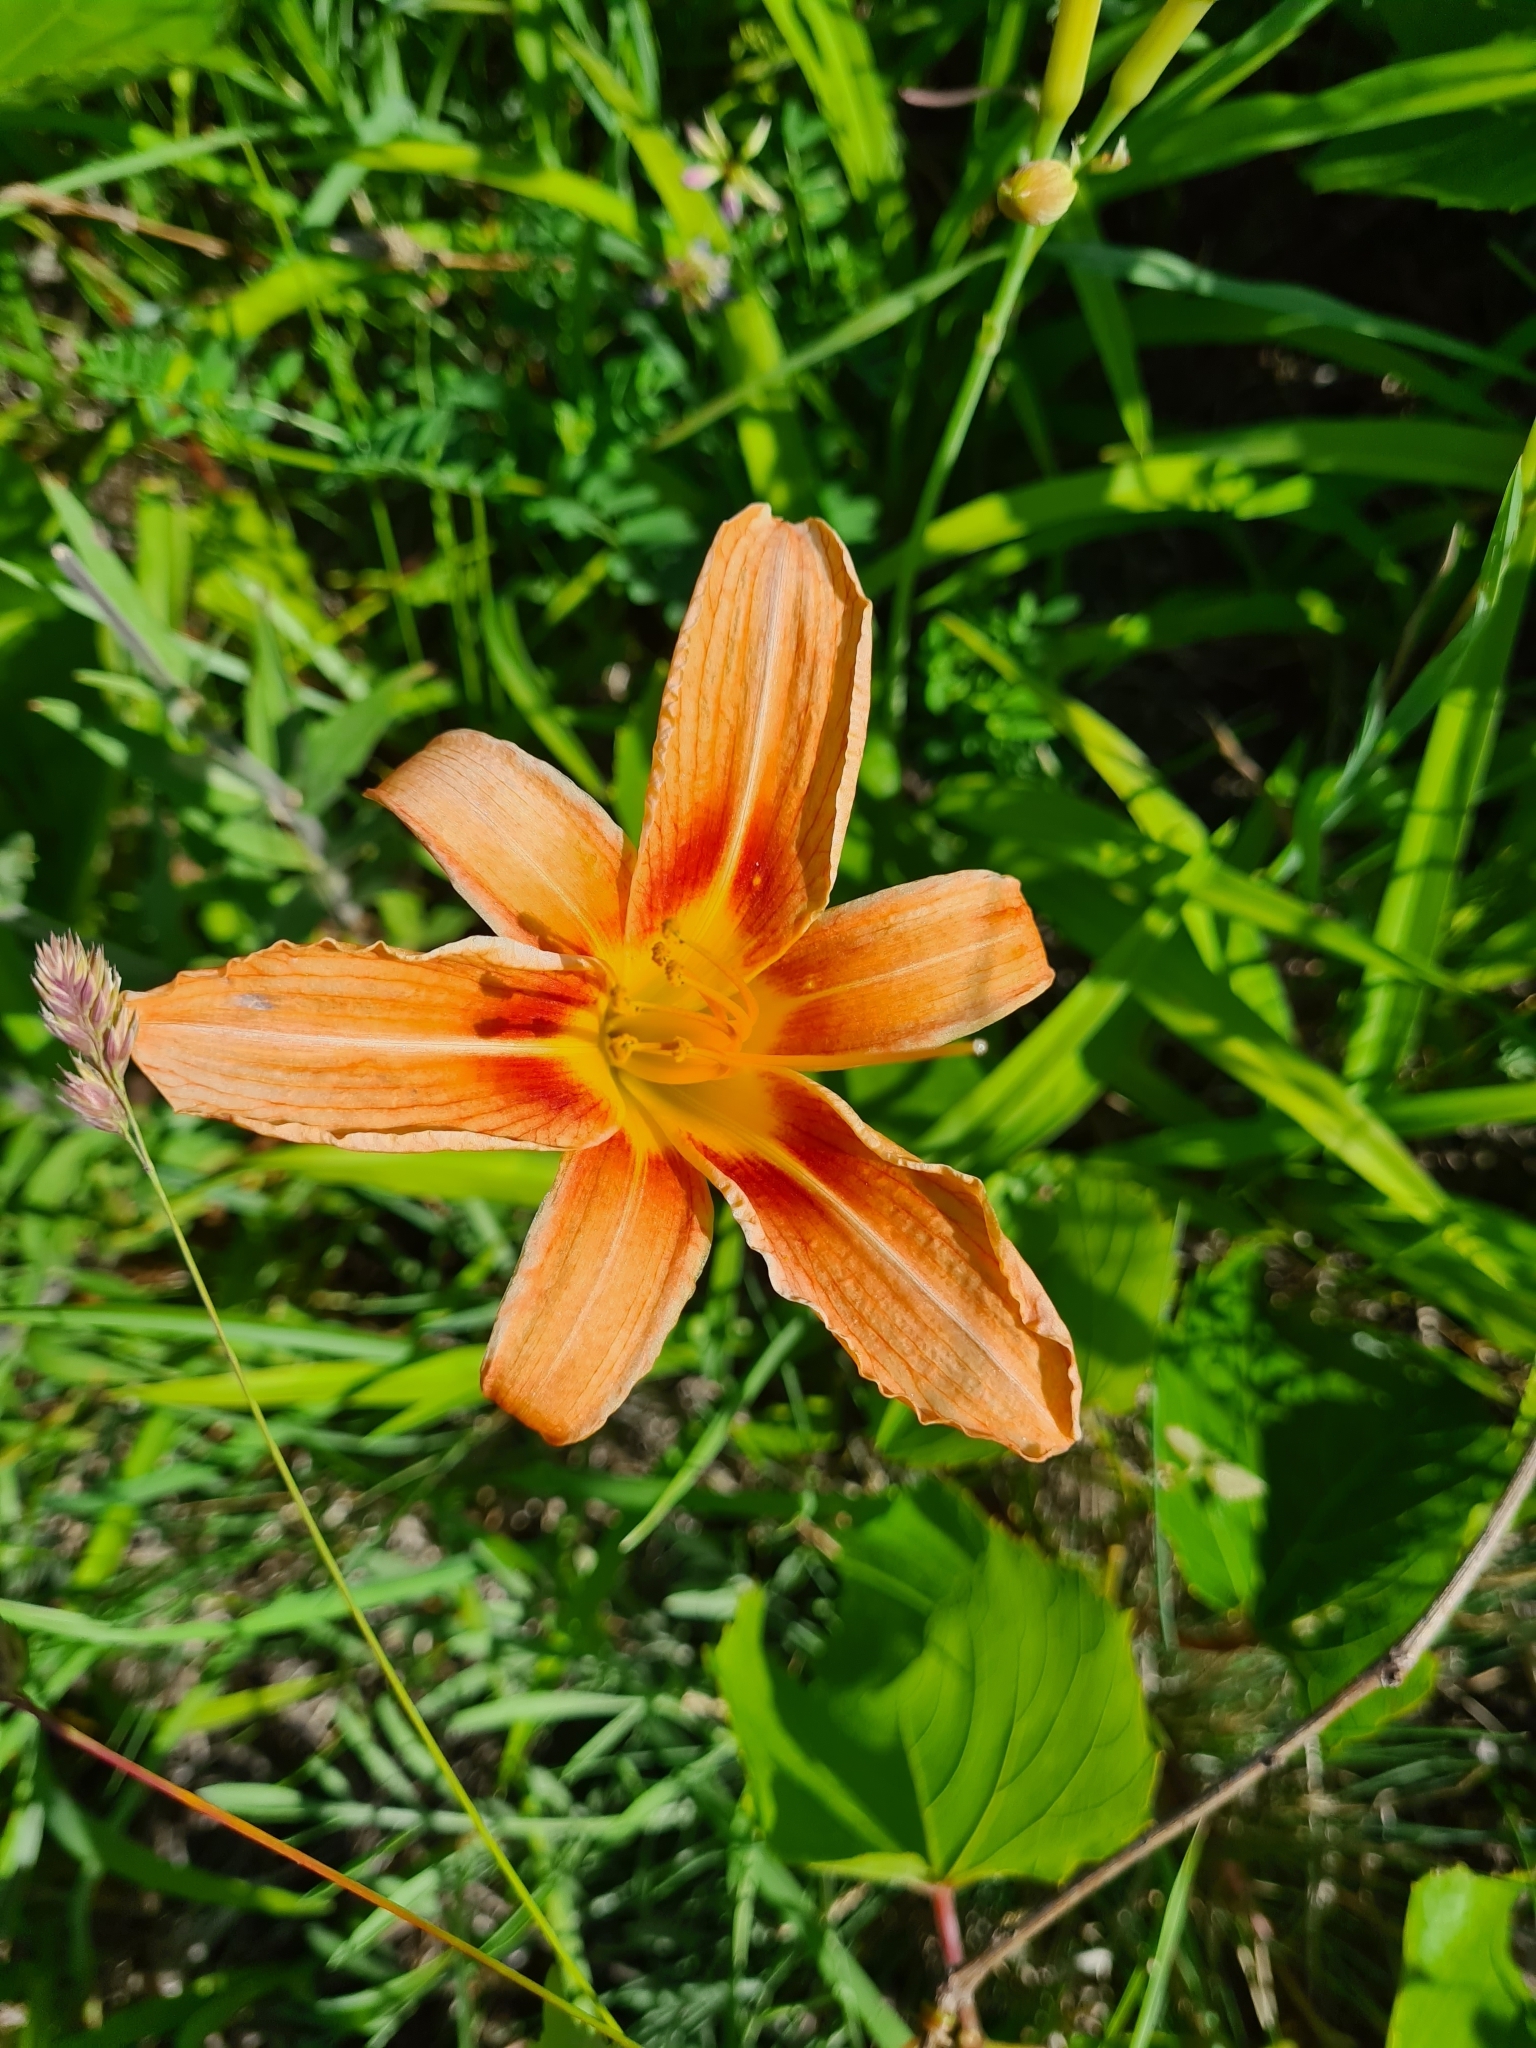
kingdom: Plantae
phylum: Tracheophyta
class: Liliopsida
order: Asparagales
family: Asphodelaceae
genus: Hemerocallis
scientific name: Hemerocallis fulva
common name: Orange day-lily
